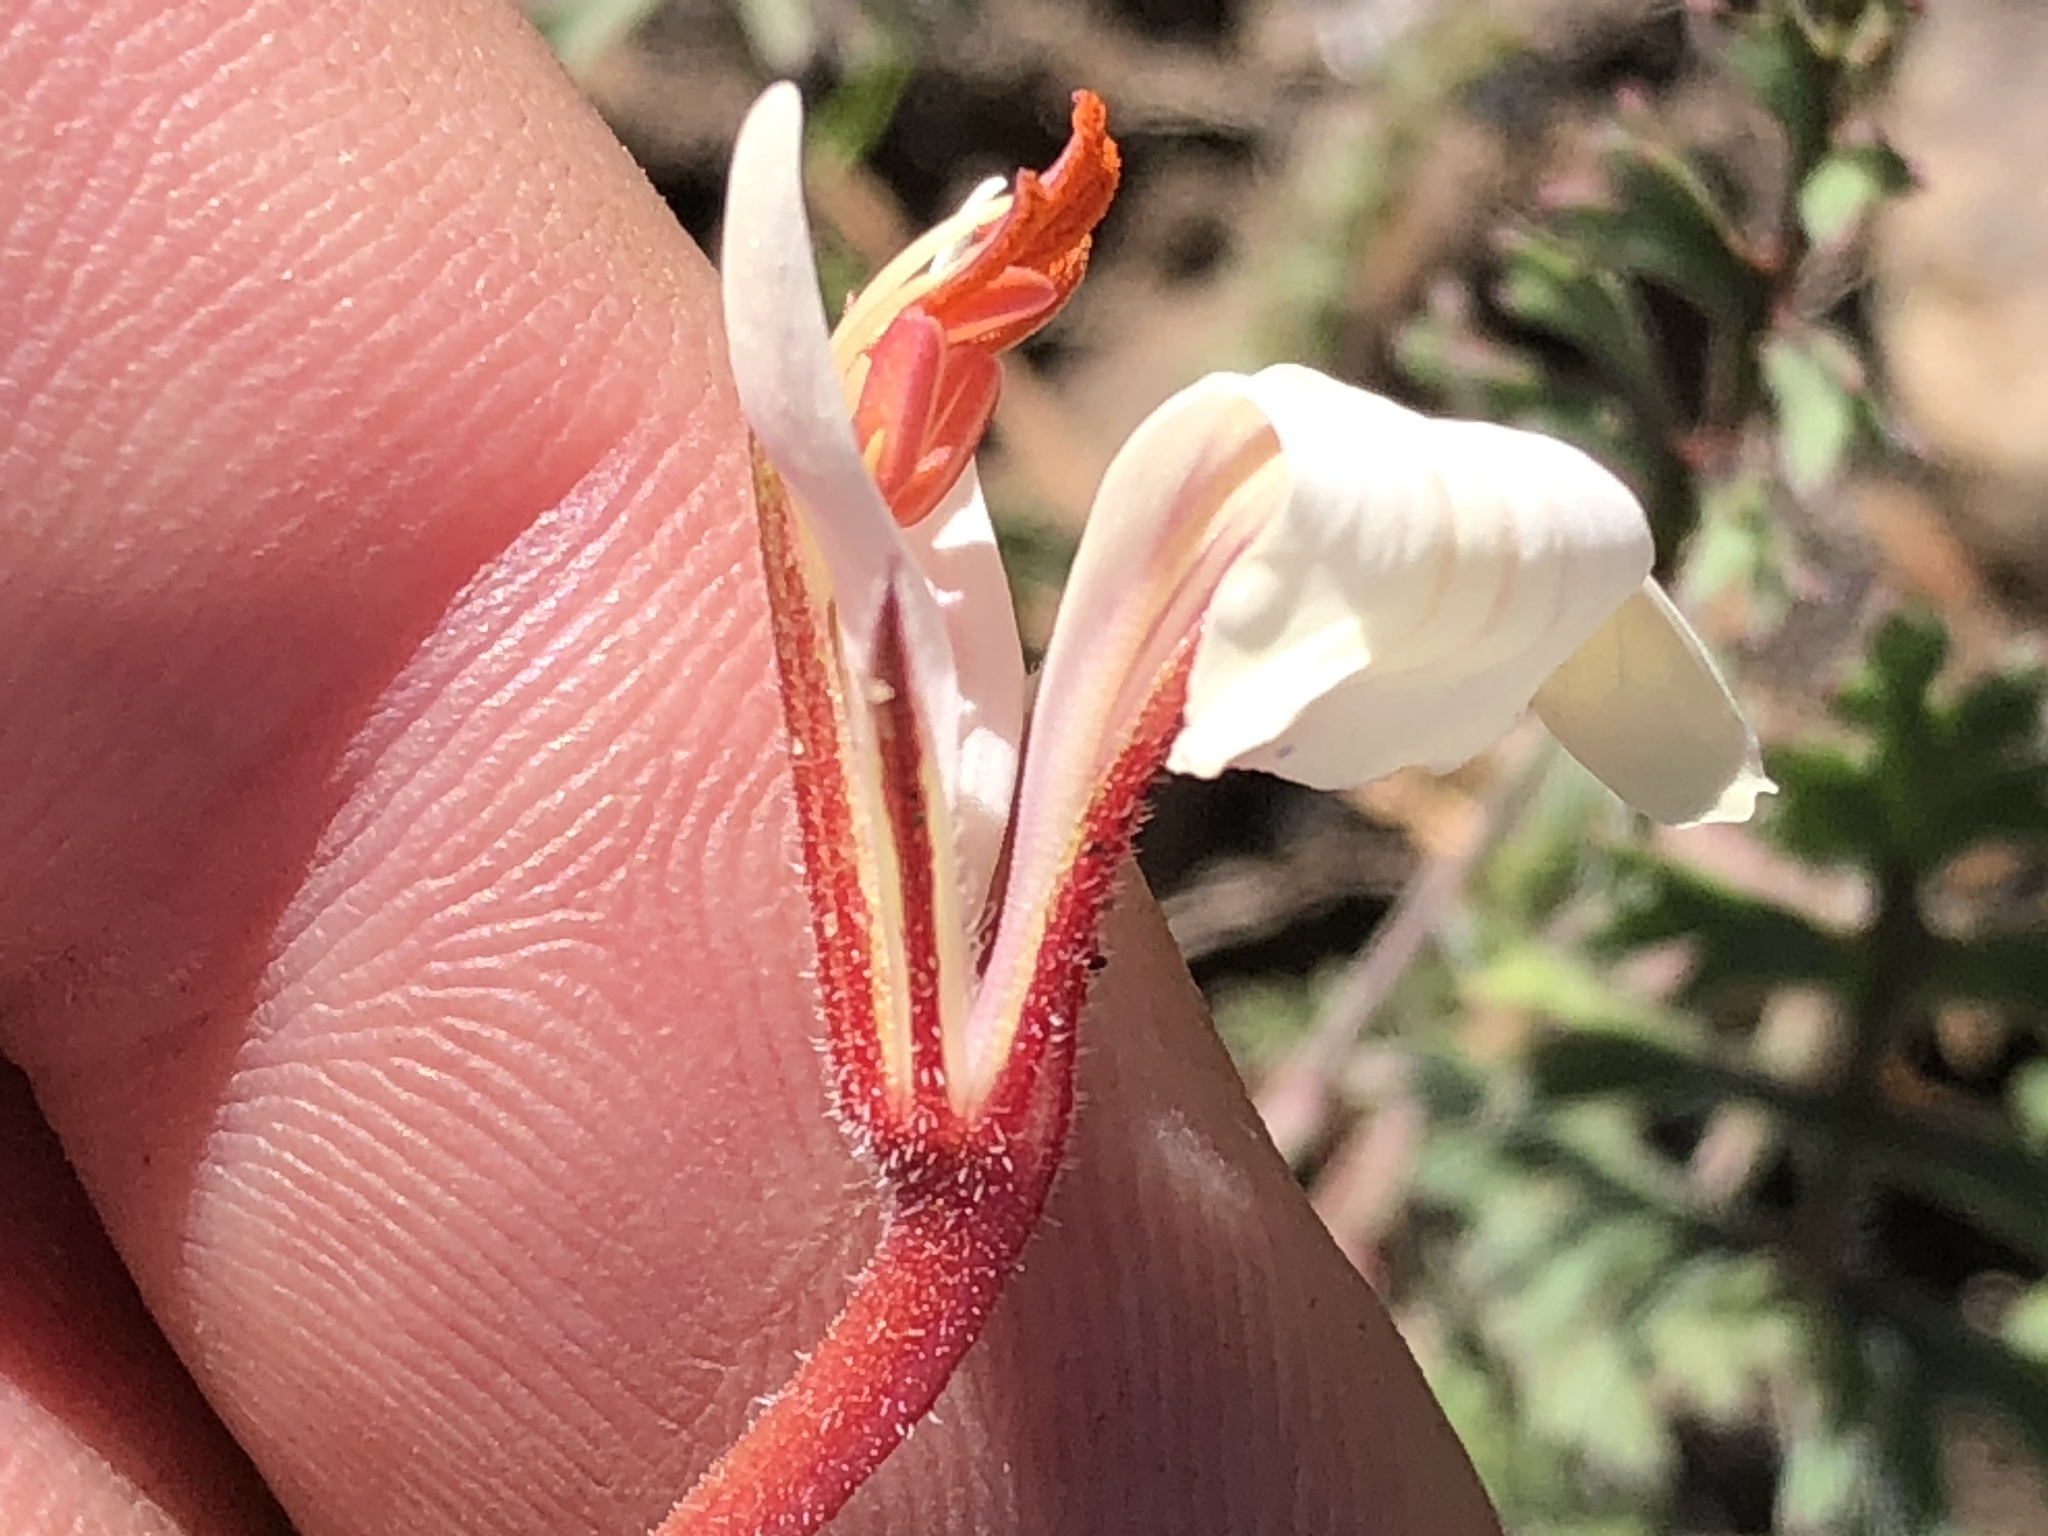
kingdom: Plantae
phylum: Tracheophyta
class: Magnoliopsida
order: Geraniales
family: Geraniaceae
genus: Pelargonium
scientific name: Pelargonium myrrhifolium
